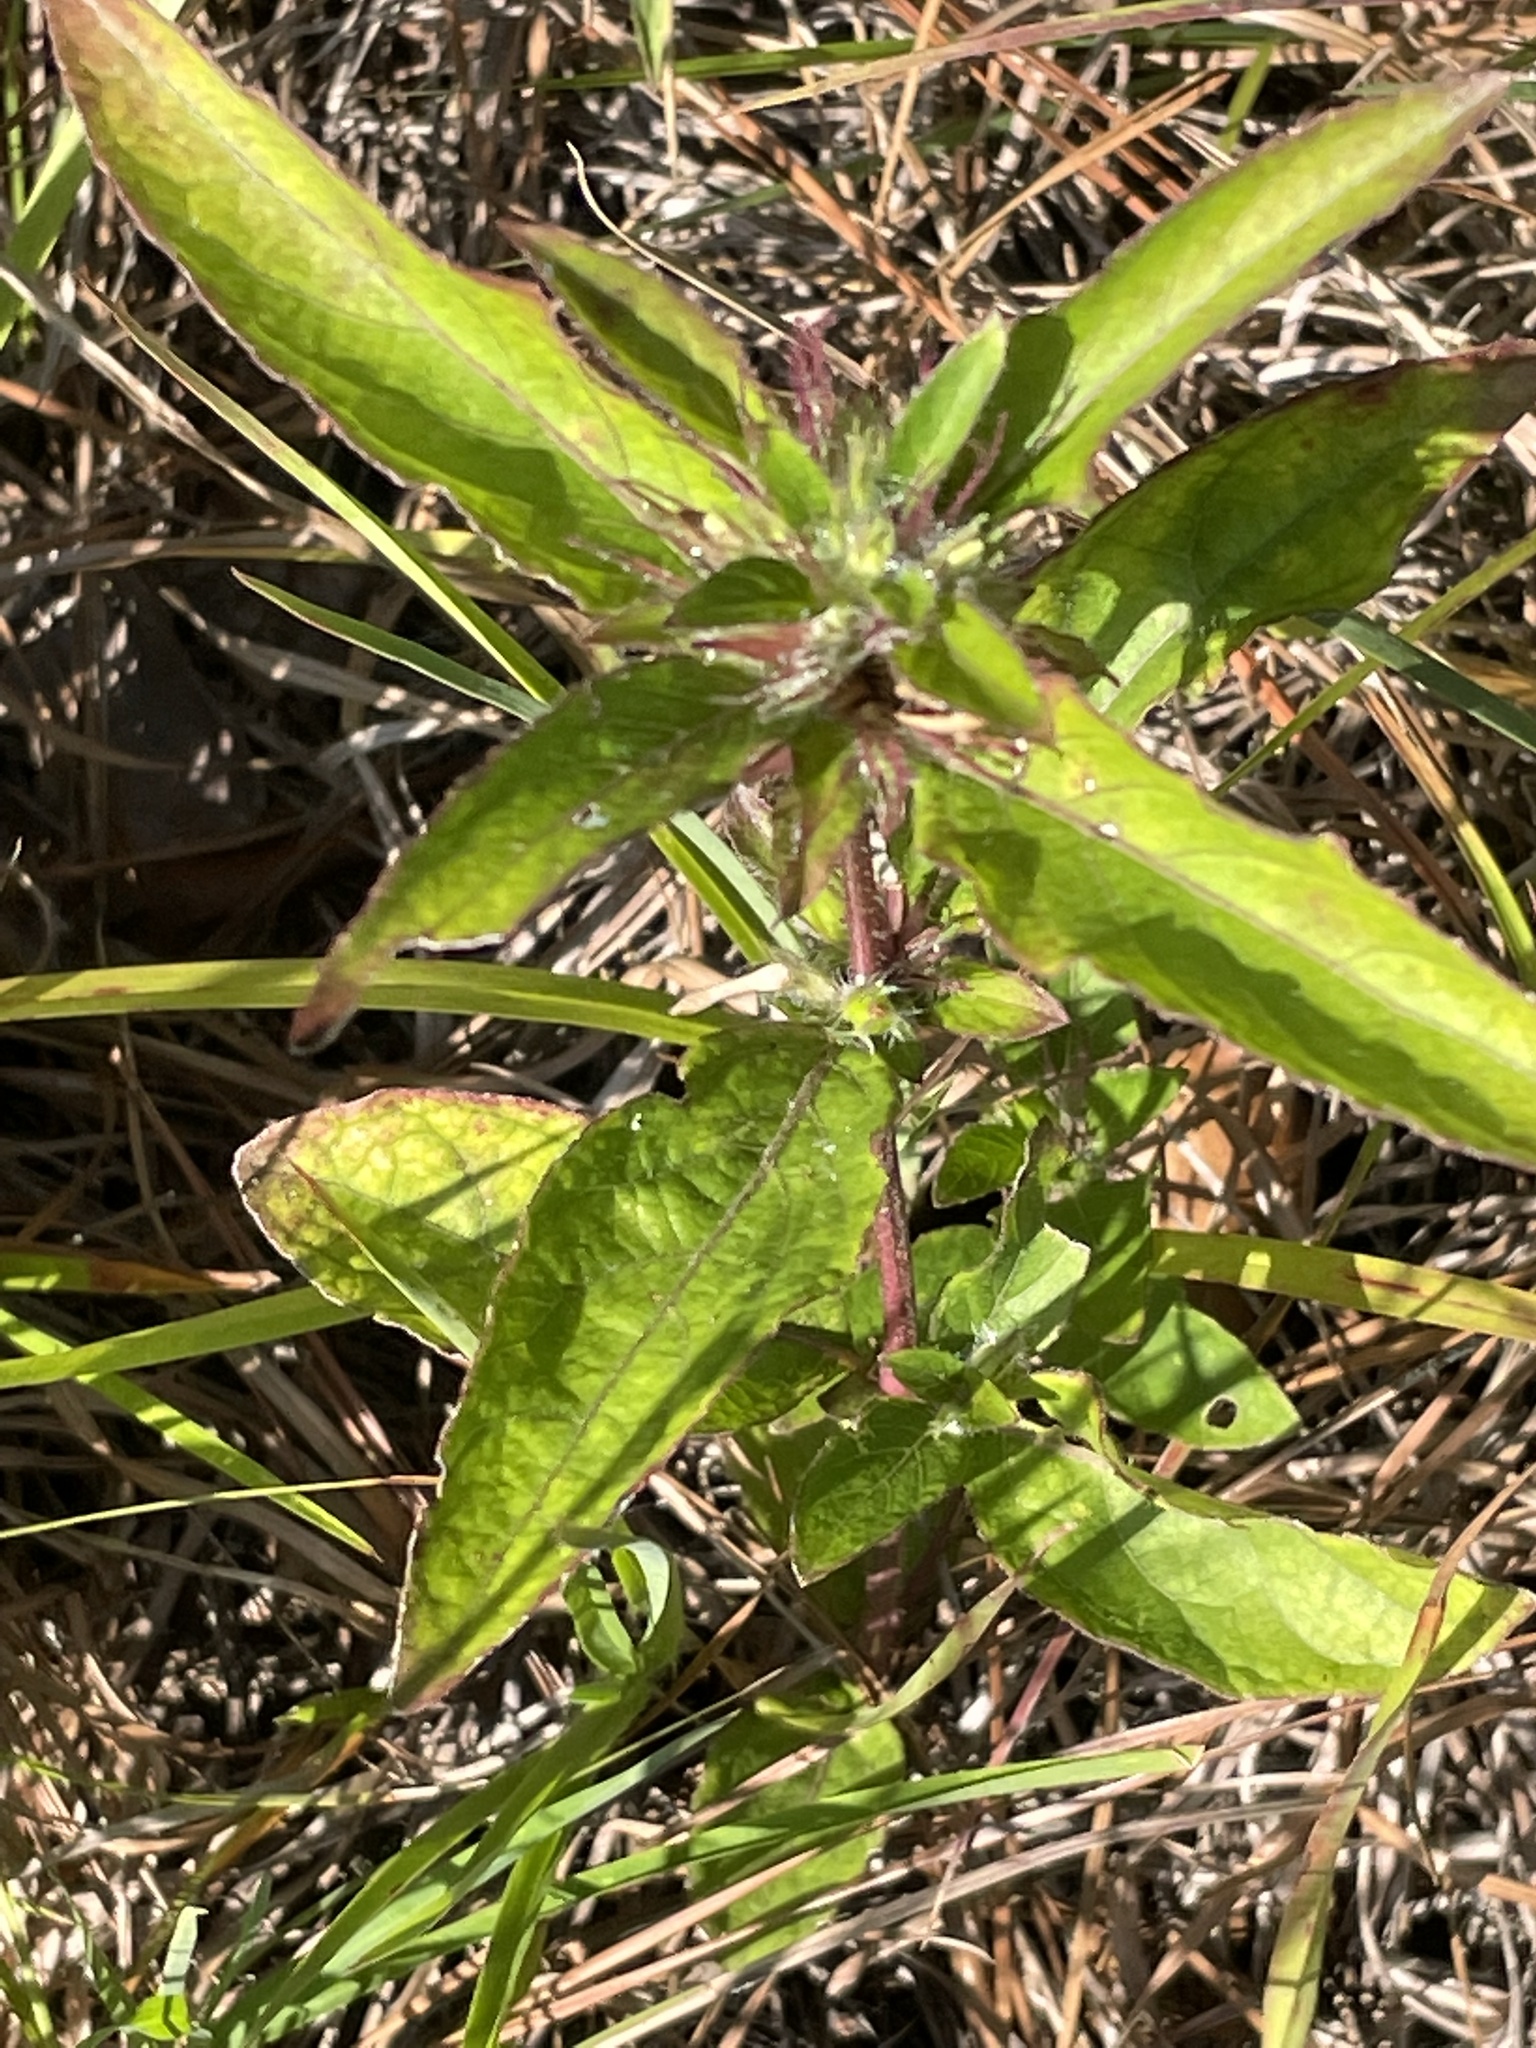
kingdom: Plantae
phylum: Tracheophyta
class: Magnoliopsida
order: Lamiales
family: Acanthaceae
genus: Ruellia
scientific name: Ruellia caroliniensis
